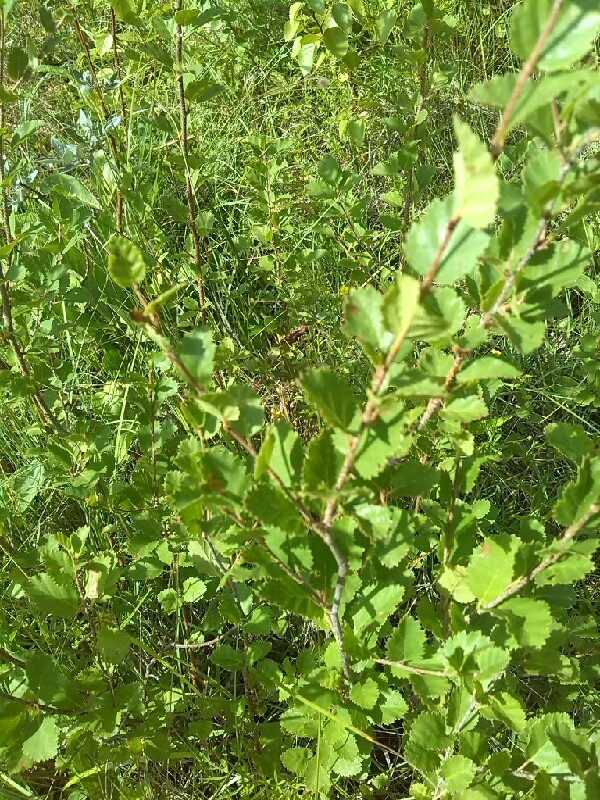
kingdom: Plantae
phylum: Tracheophyta
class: Magnoliopsida
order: Fagales
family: Betulaceae
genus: Betula
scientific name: Betula humilis
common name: Shrubby birch
